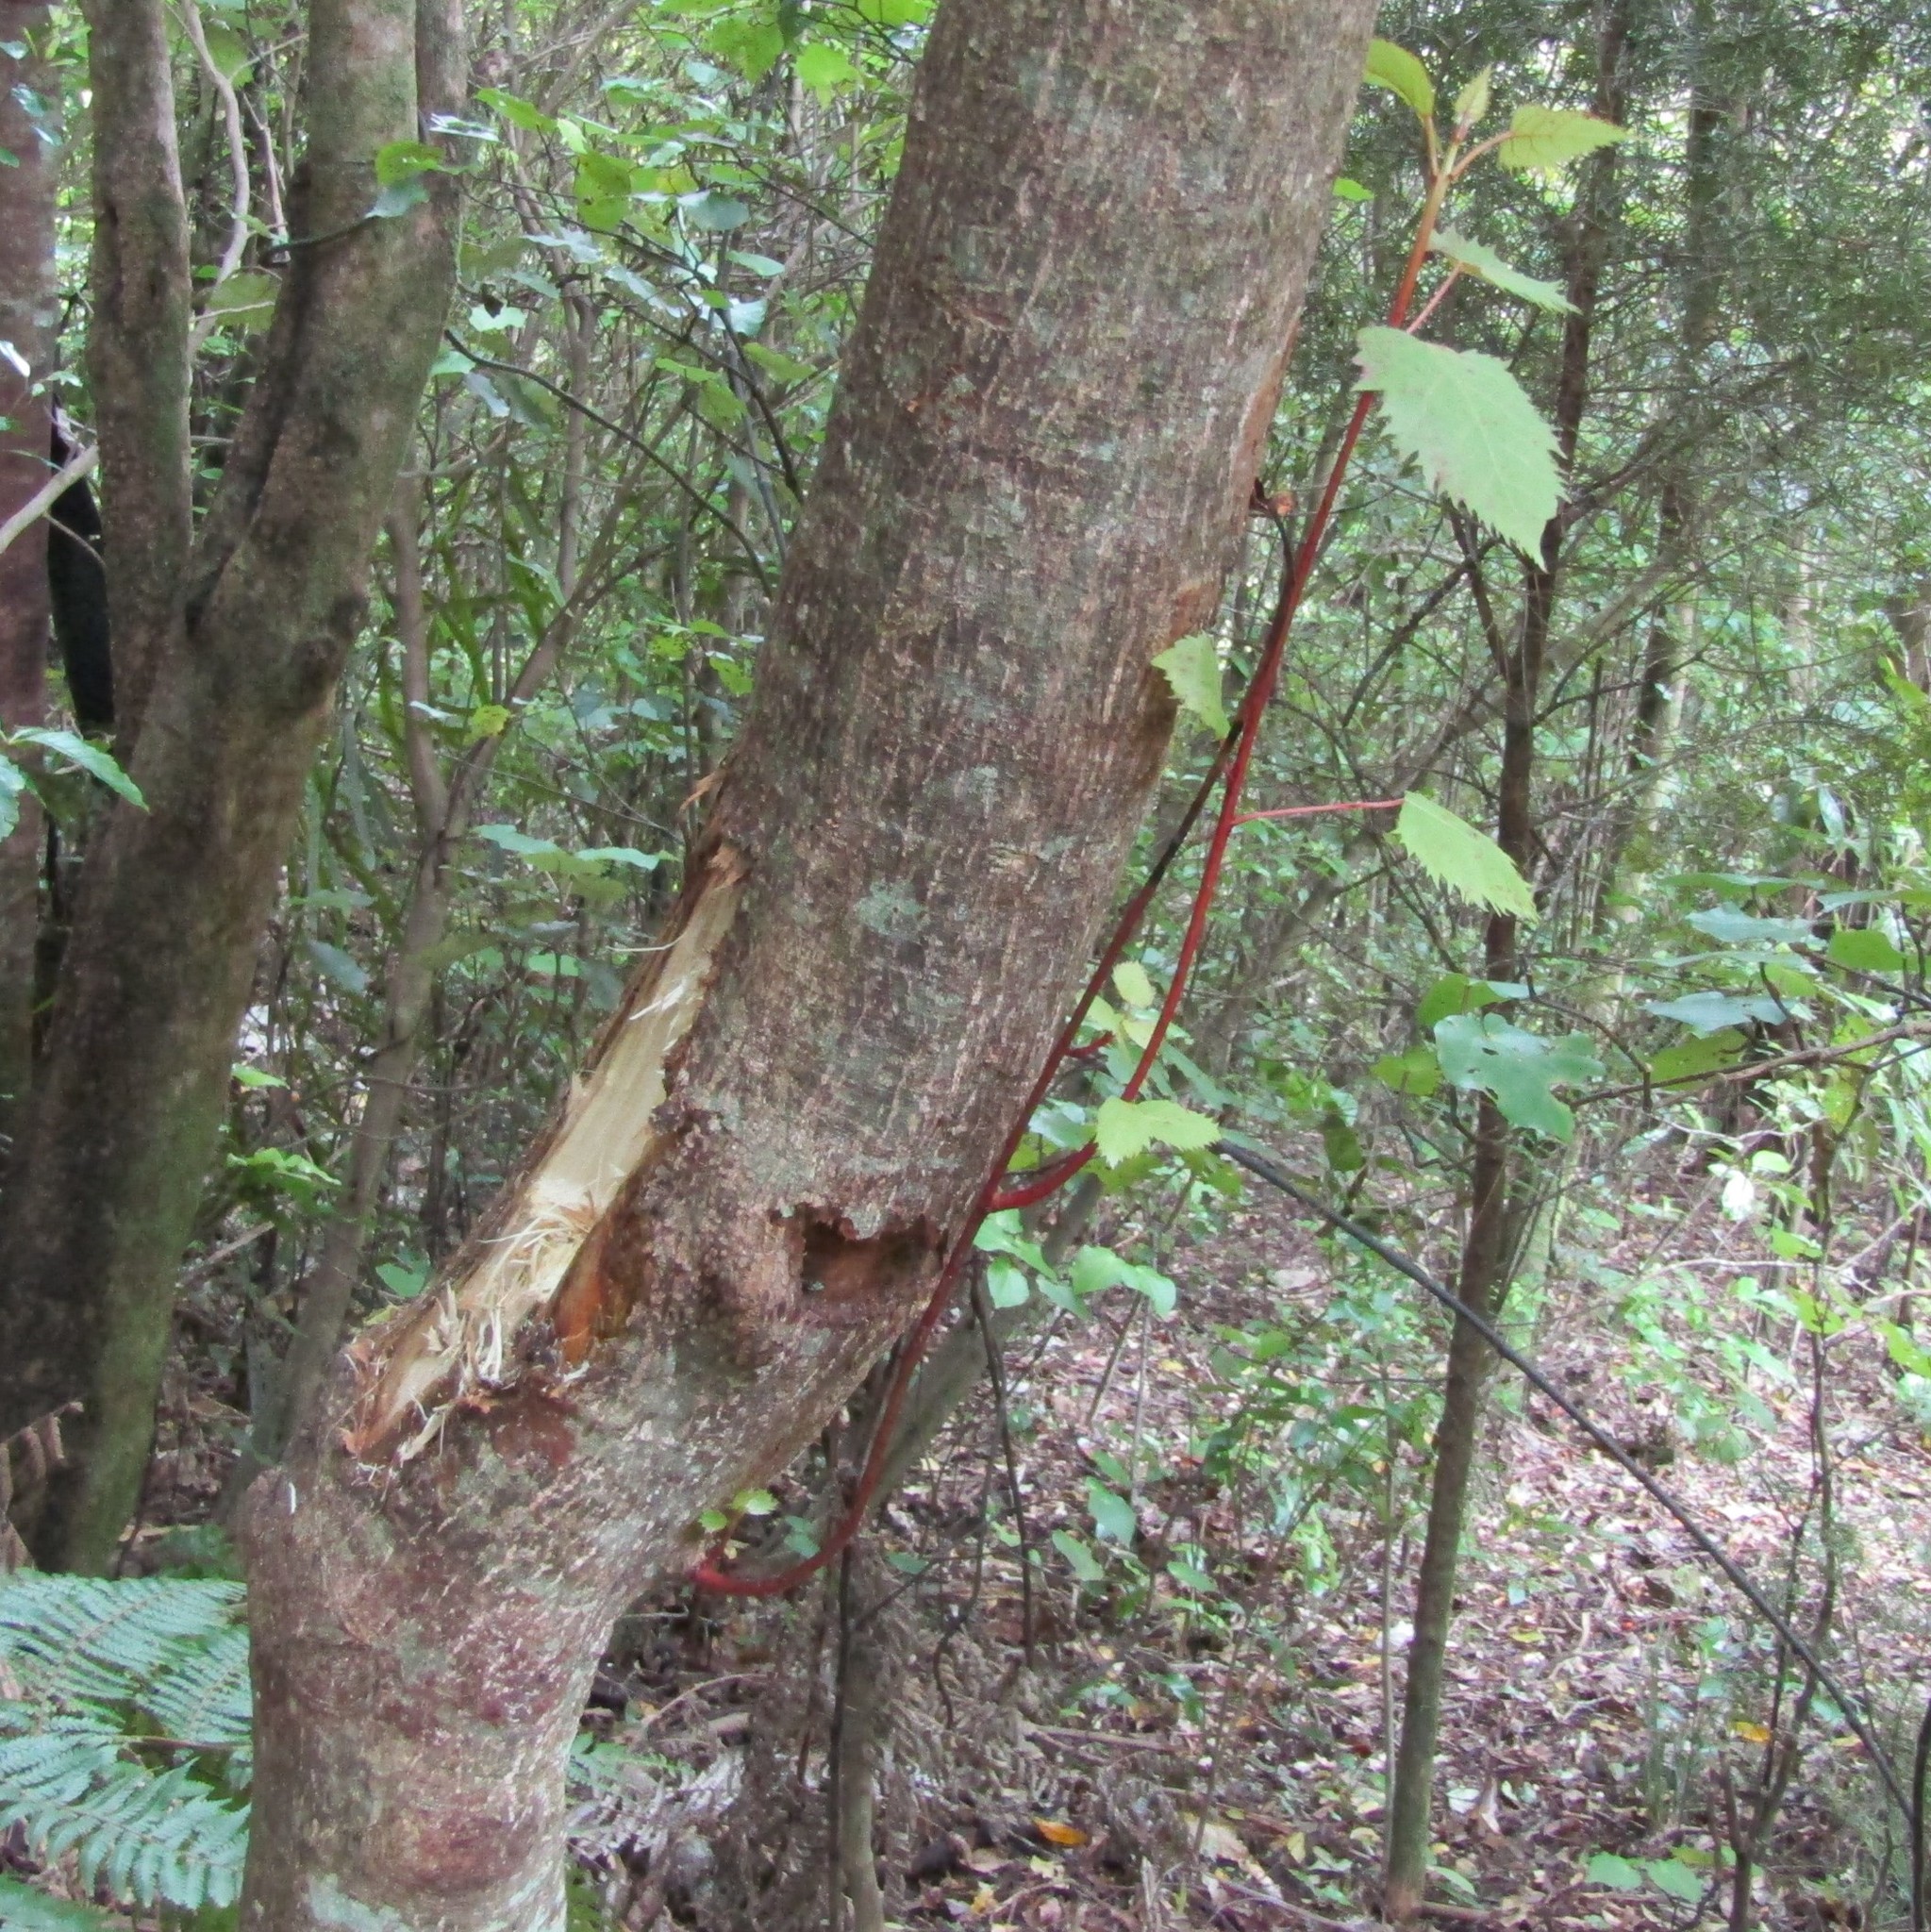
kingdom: Plantae
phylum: Tracheophyta
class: Magnoliopsida
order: Oxalidales
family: Elaeocarpaceae
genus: Aristotelia
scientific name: Aristotelia serrata
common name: New zealand wineberry
